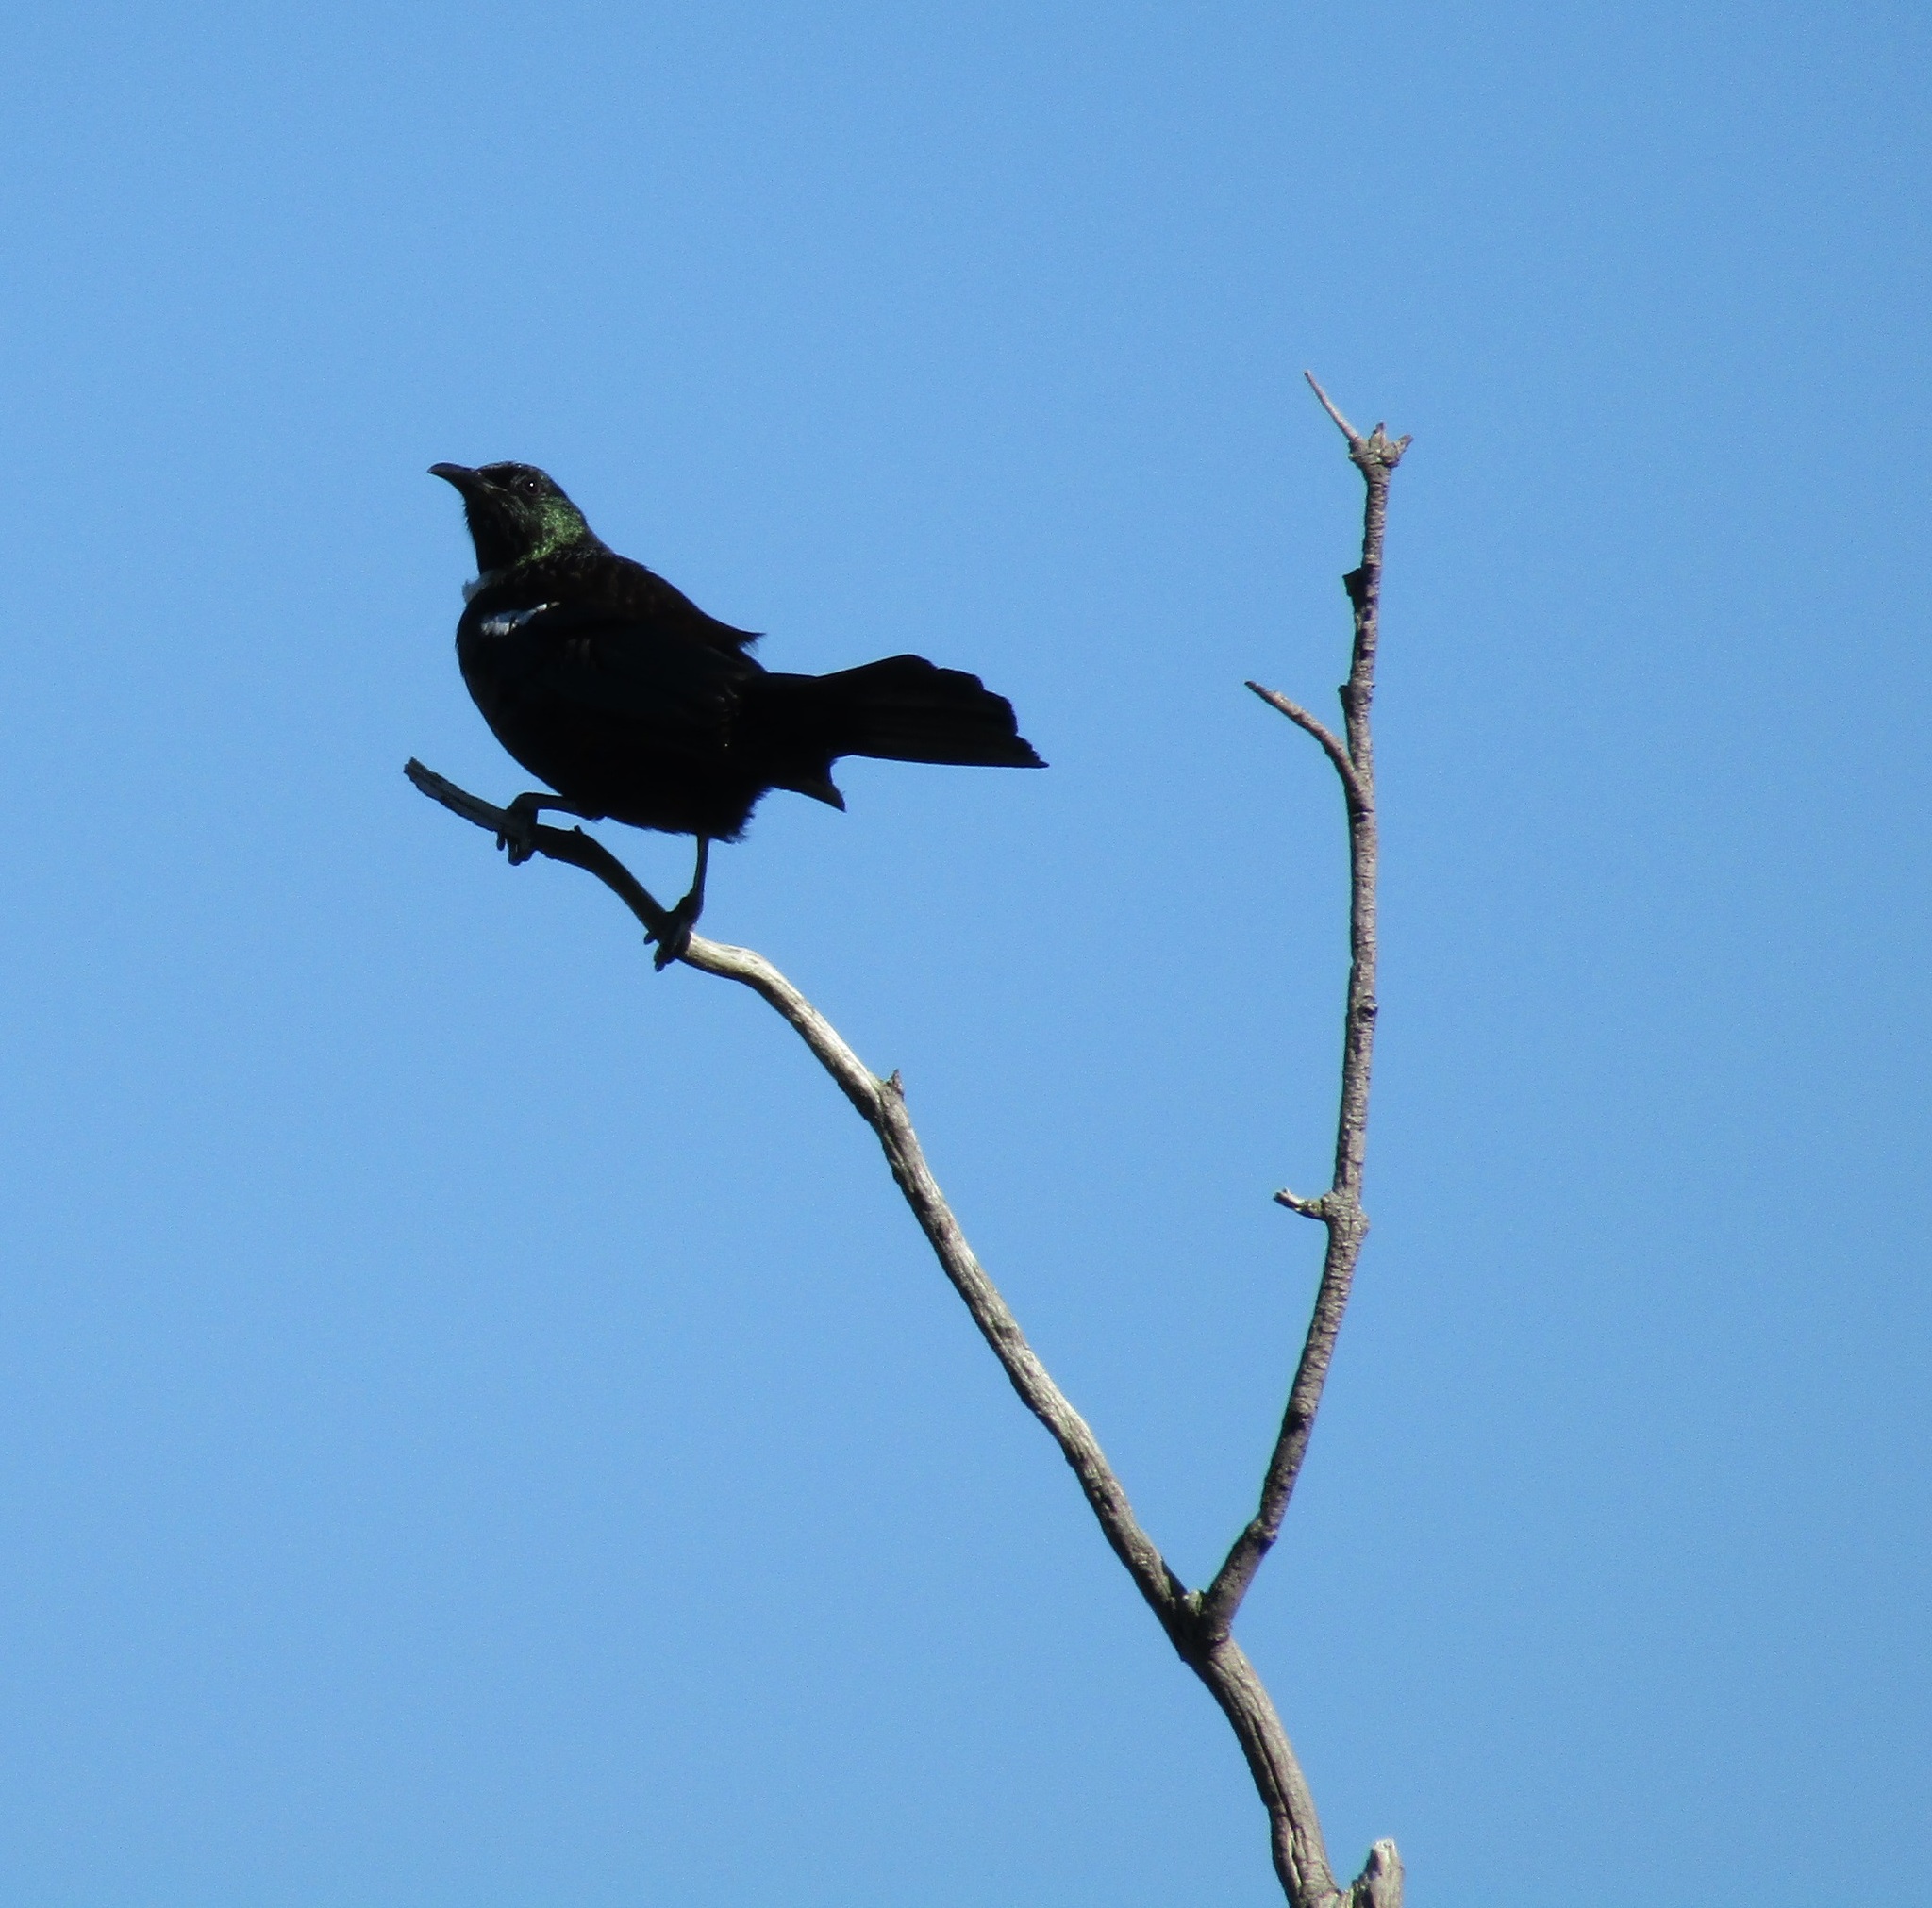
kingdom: Animalia
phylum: Chordata
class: Aves
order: Passeriformes
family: Meliphagidae
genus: Prosthemadera
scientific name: Prosthemadera novaeseelandiae
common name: Tui
